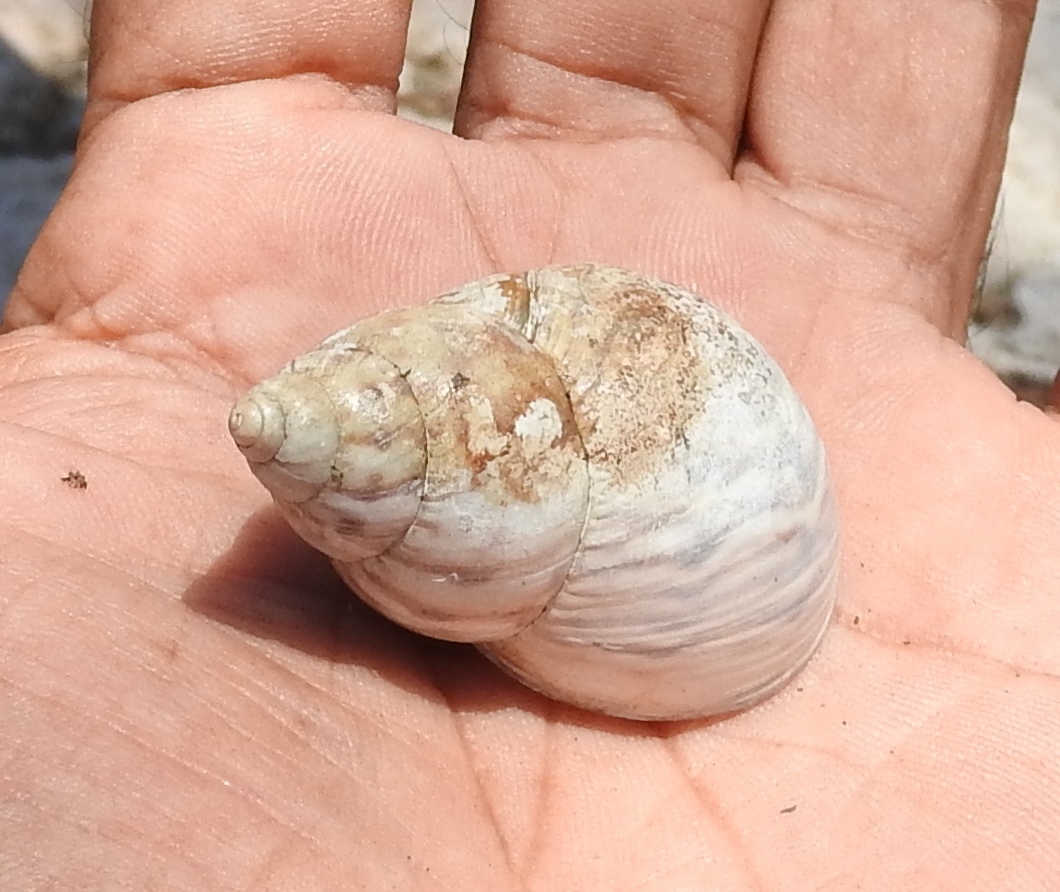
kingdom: Animalia
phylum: Mollusca
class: Gastropoda
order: Stylommatophora
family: Orthalicidae
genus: Orthalicus
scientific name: Orthalicus
